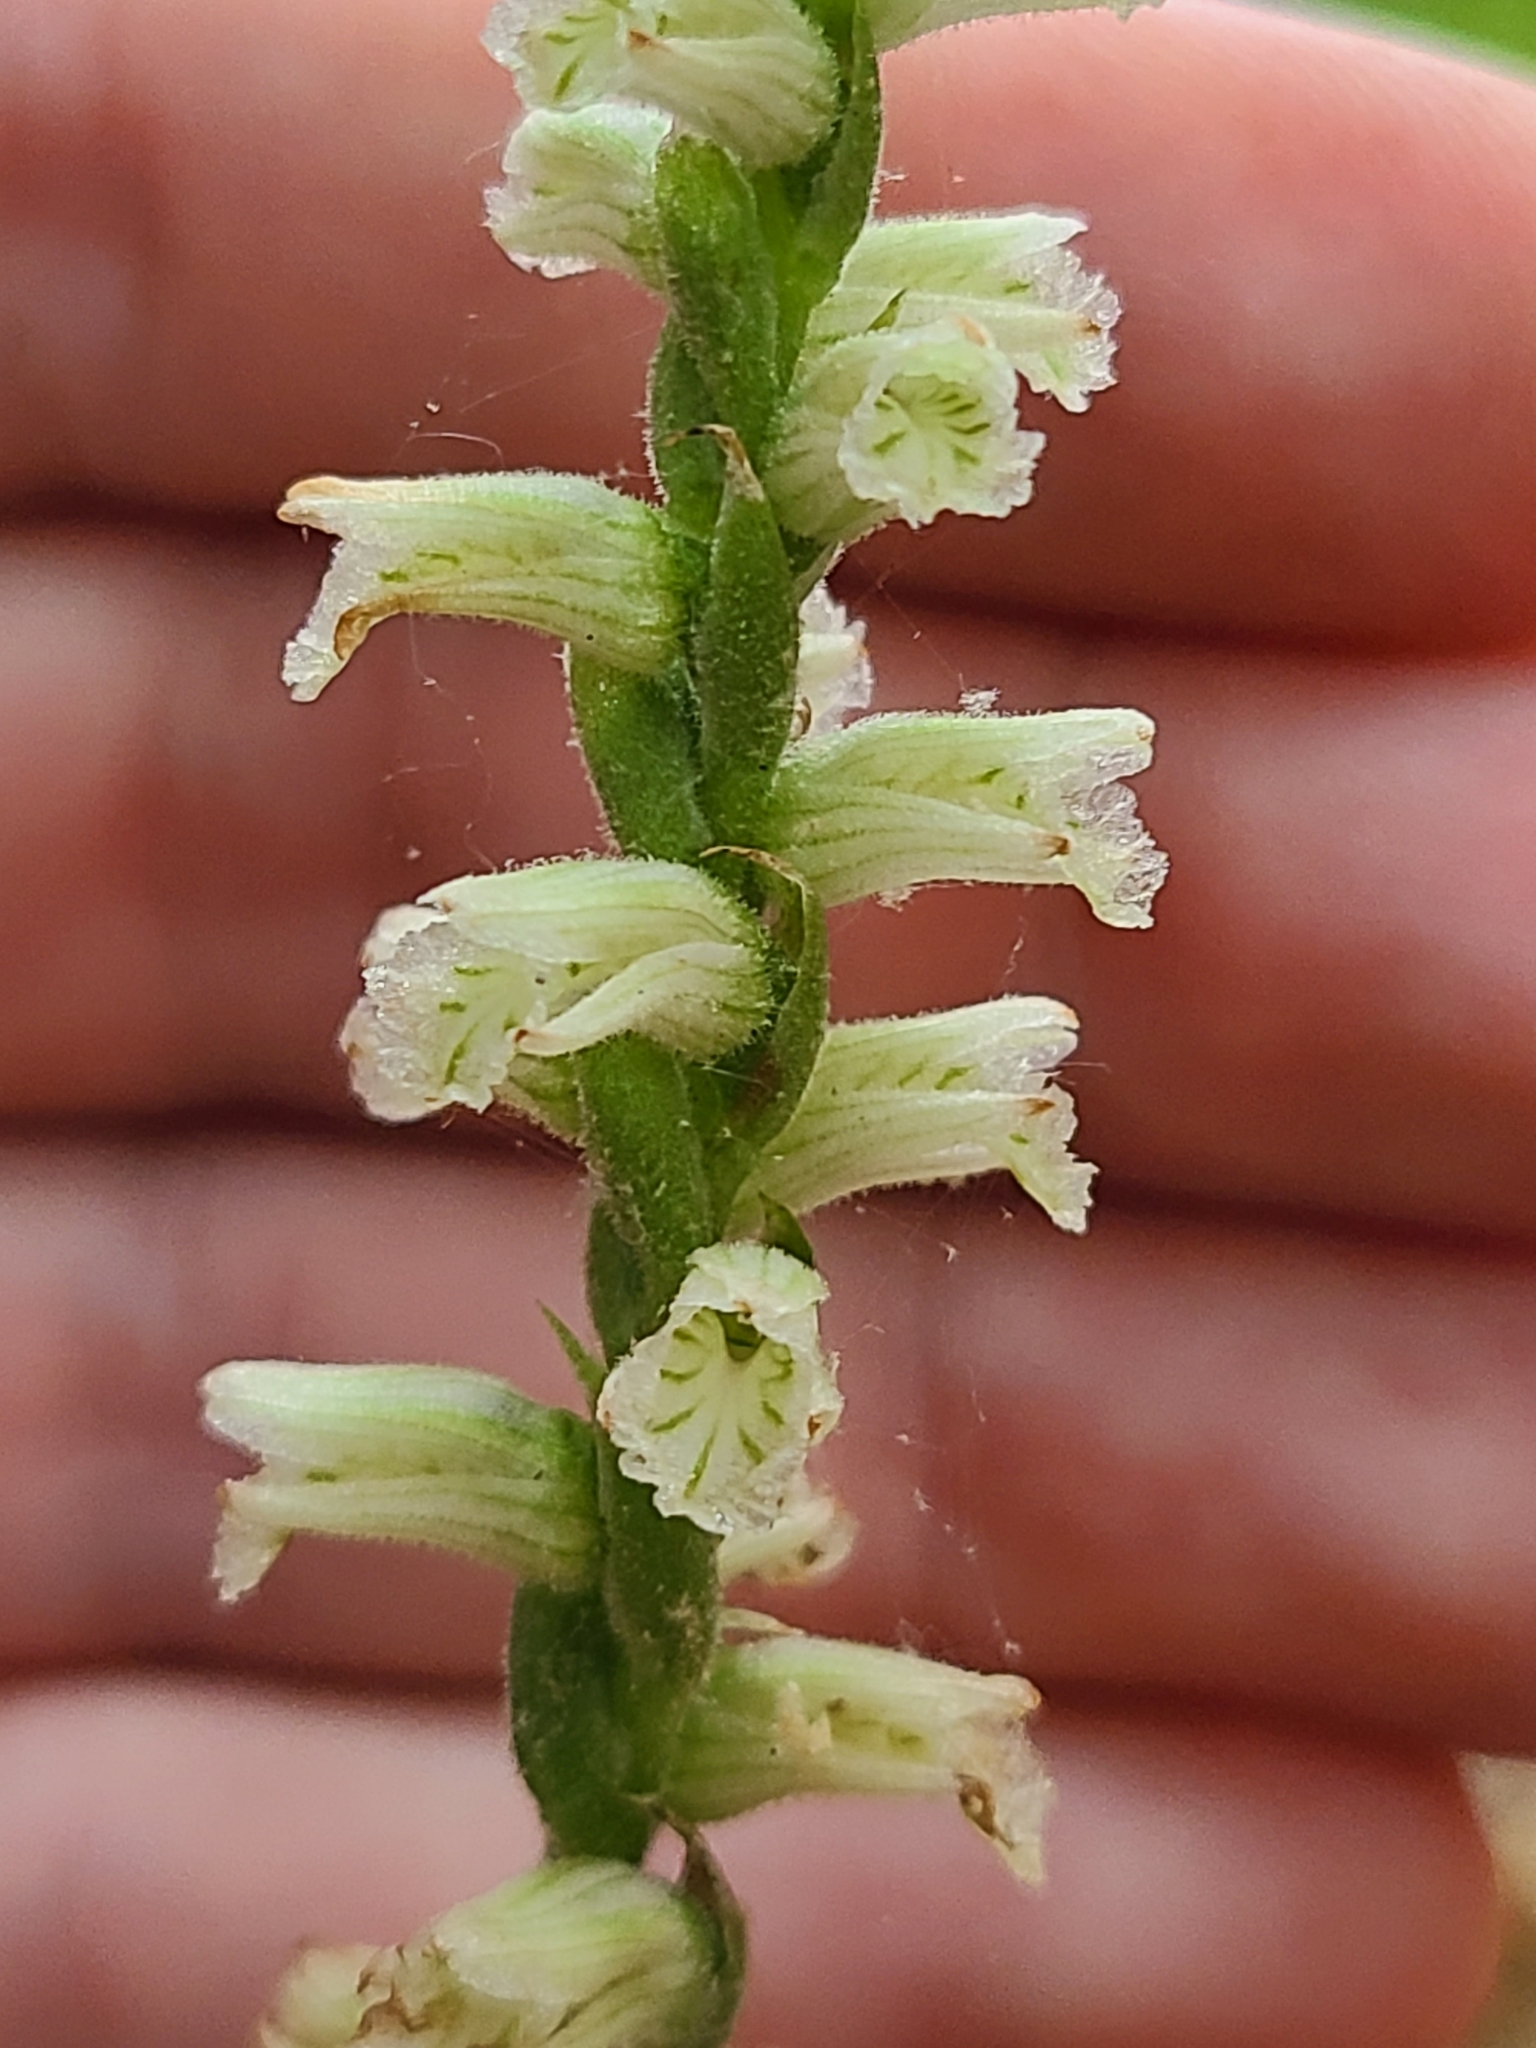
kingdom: Plantae
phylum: Tracheophyta
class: Liliopsida
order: Asparagales
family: Orchidaceae
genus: Spiranthes
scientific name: Spiranthes sylvatica
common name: Woodland lady's tresses
